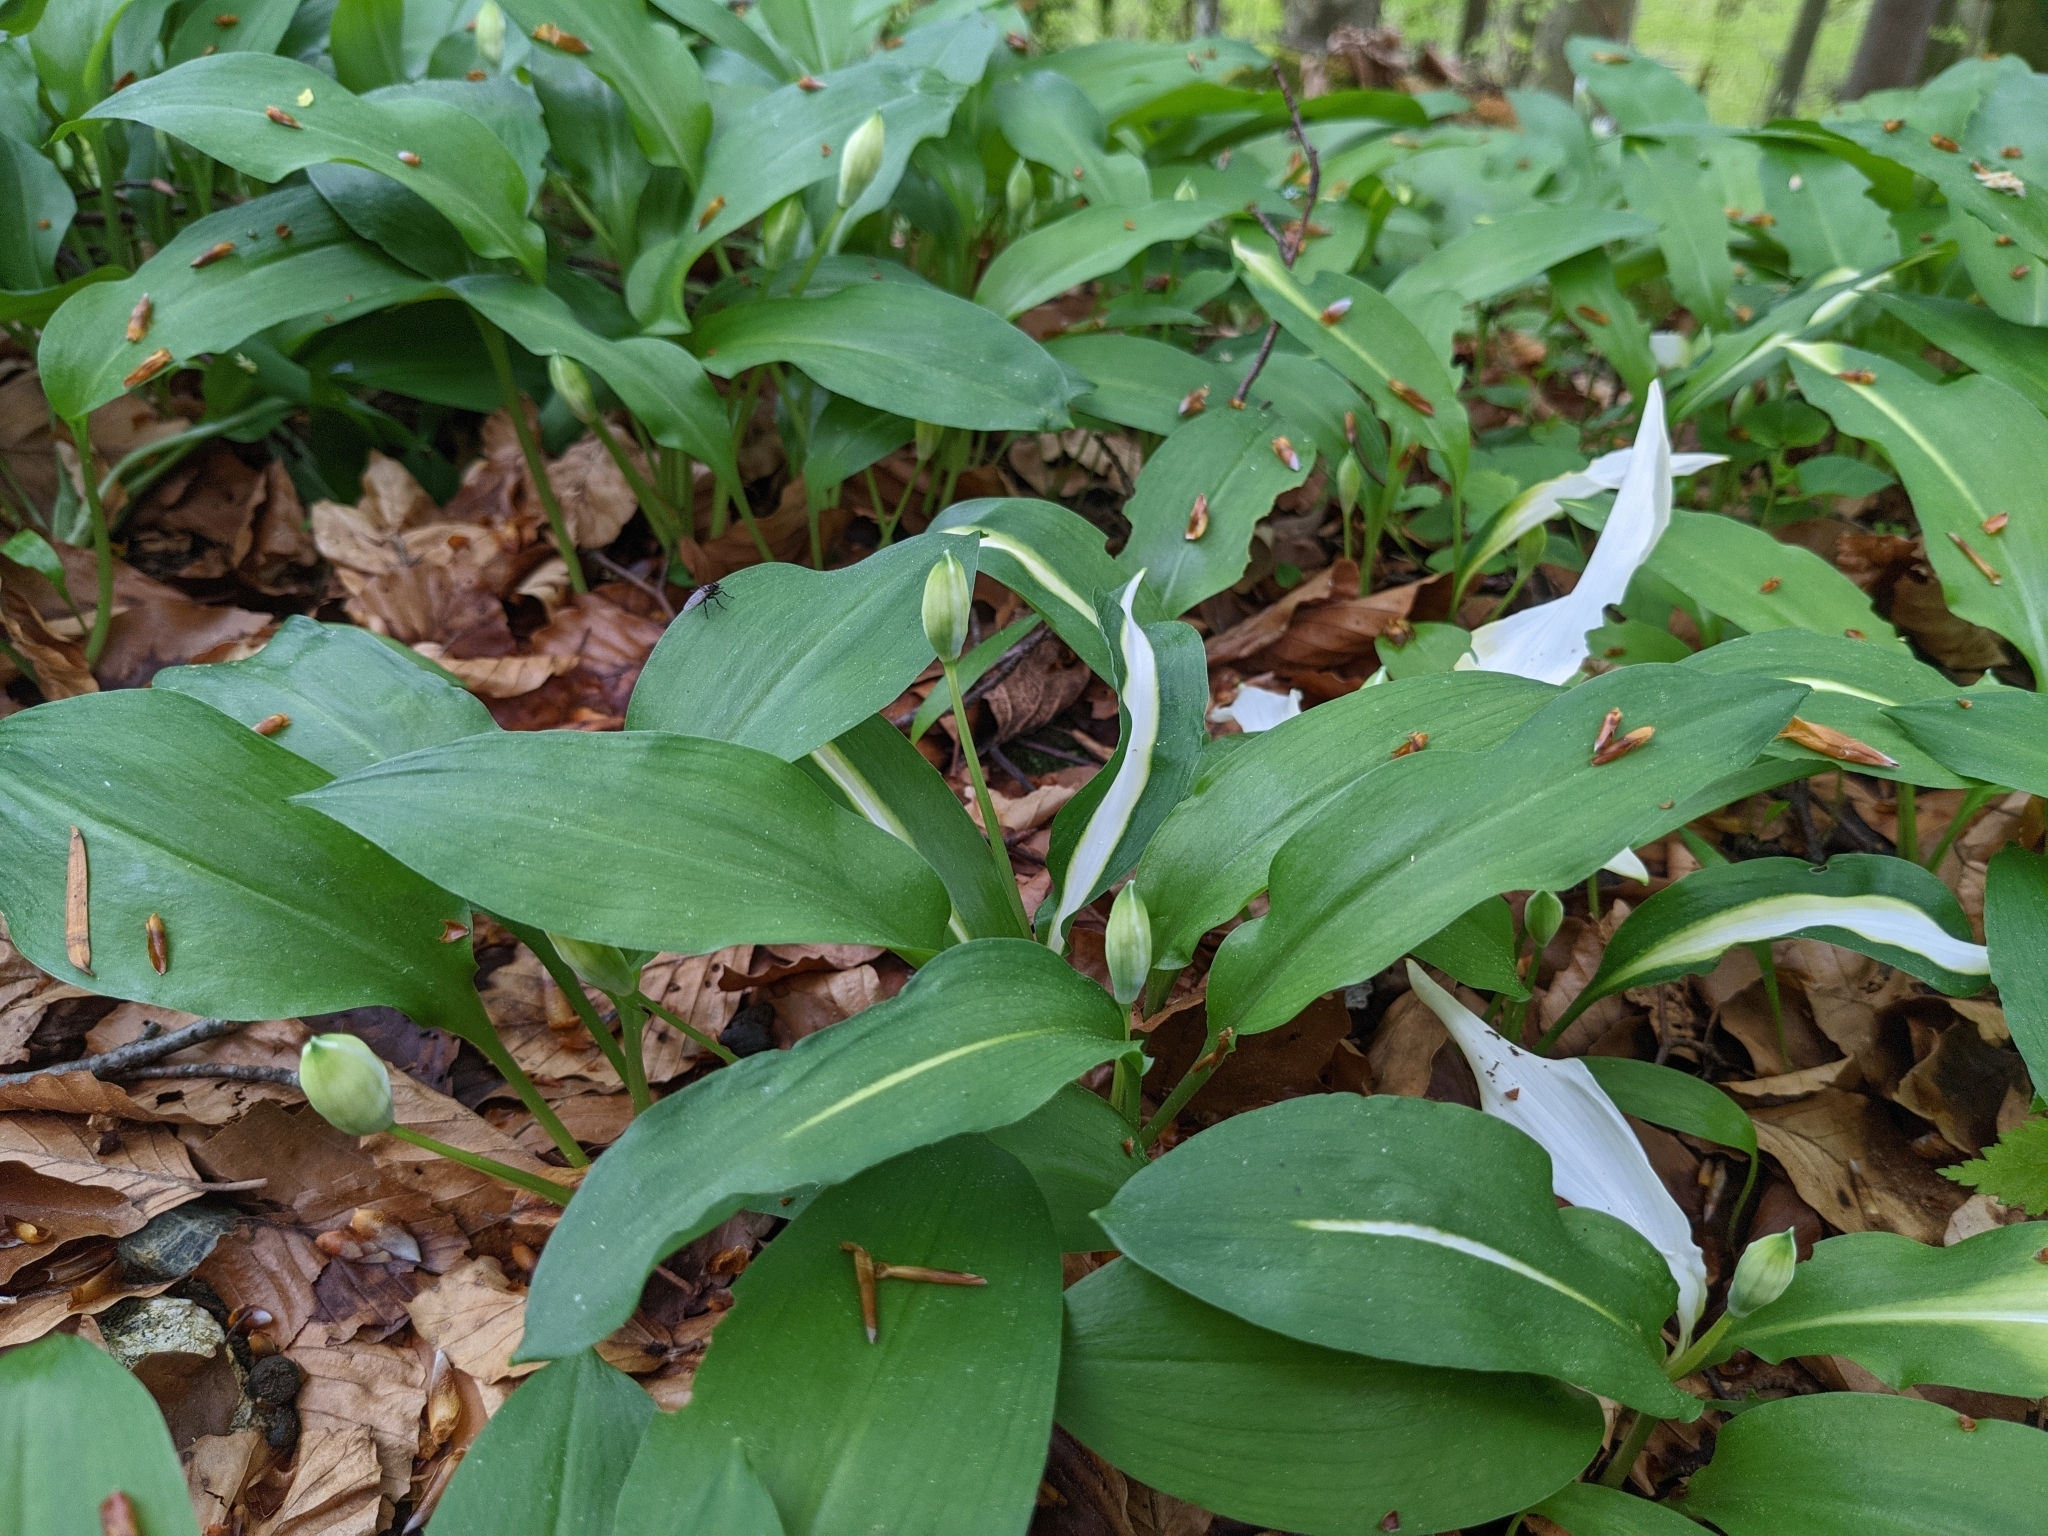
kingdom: Plantae
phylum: Tracheophyta
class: Liliopsida
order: Asparagales
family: Amaryllidaceae
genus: Allium
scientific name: Allium ursinum
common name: Ramsons
